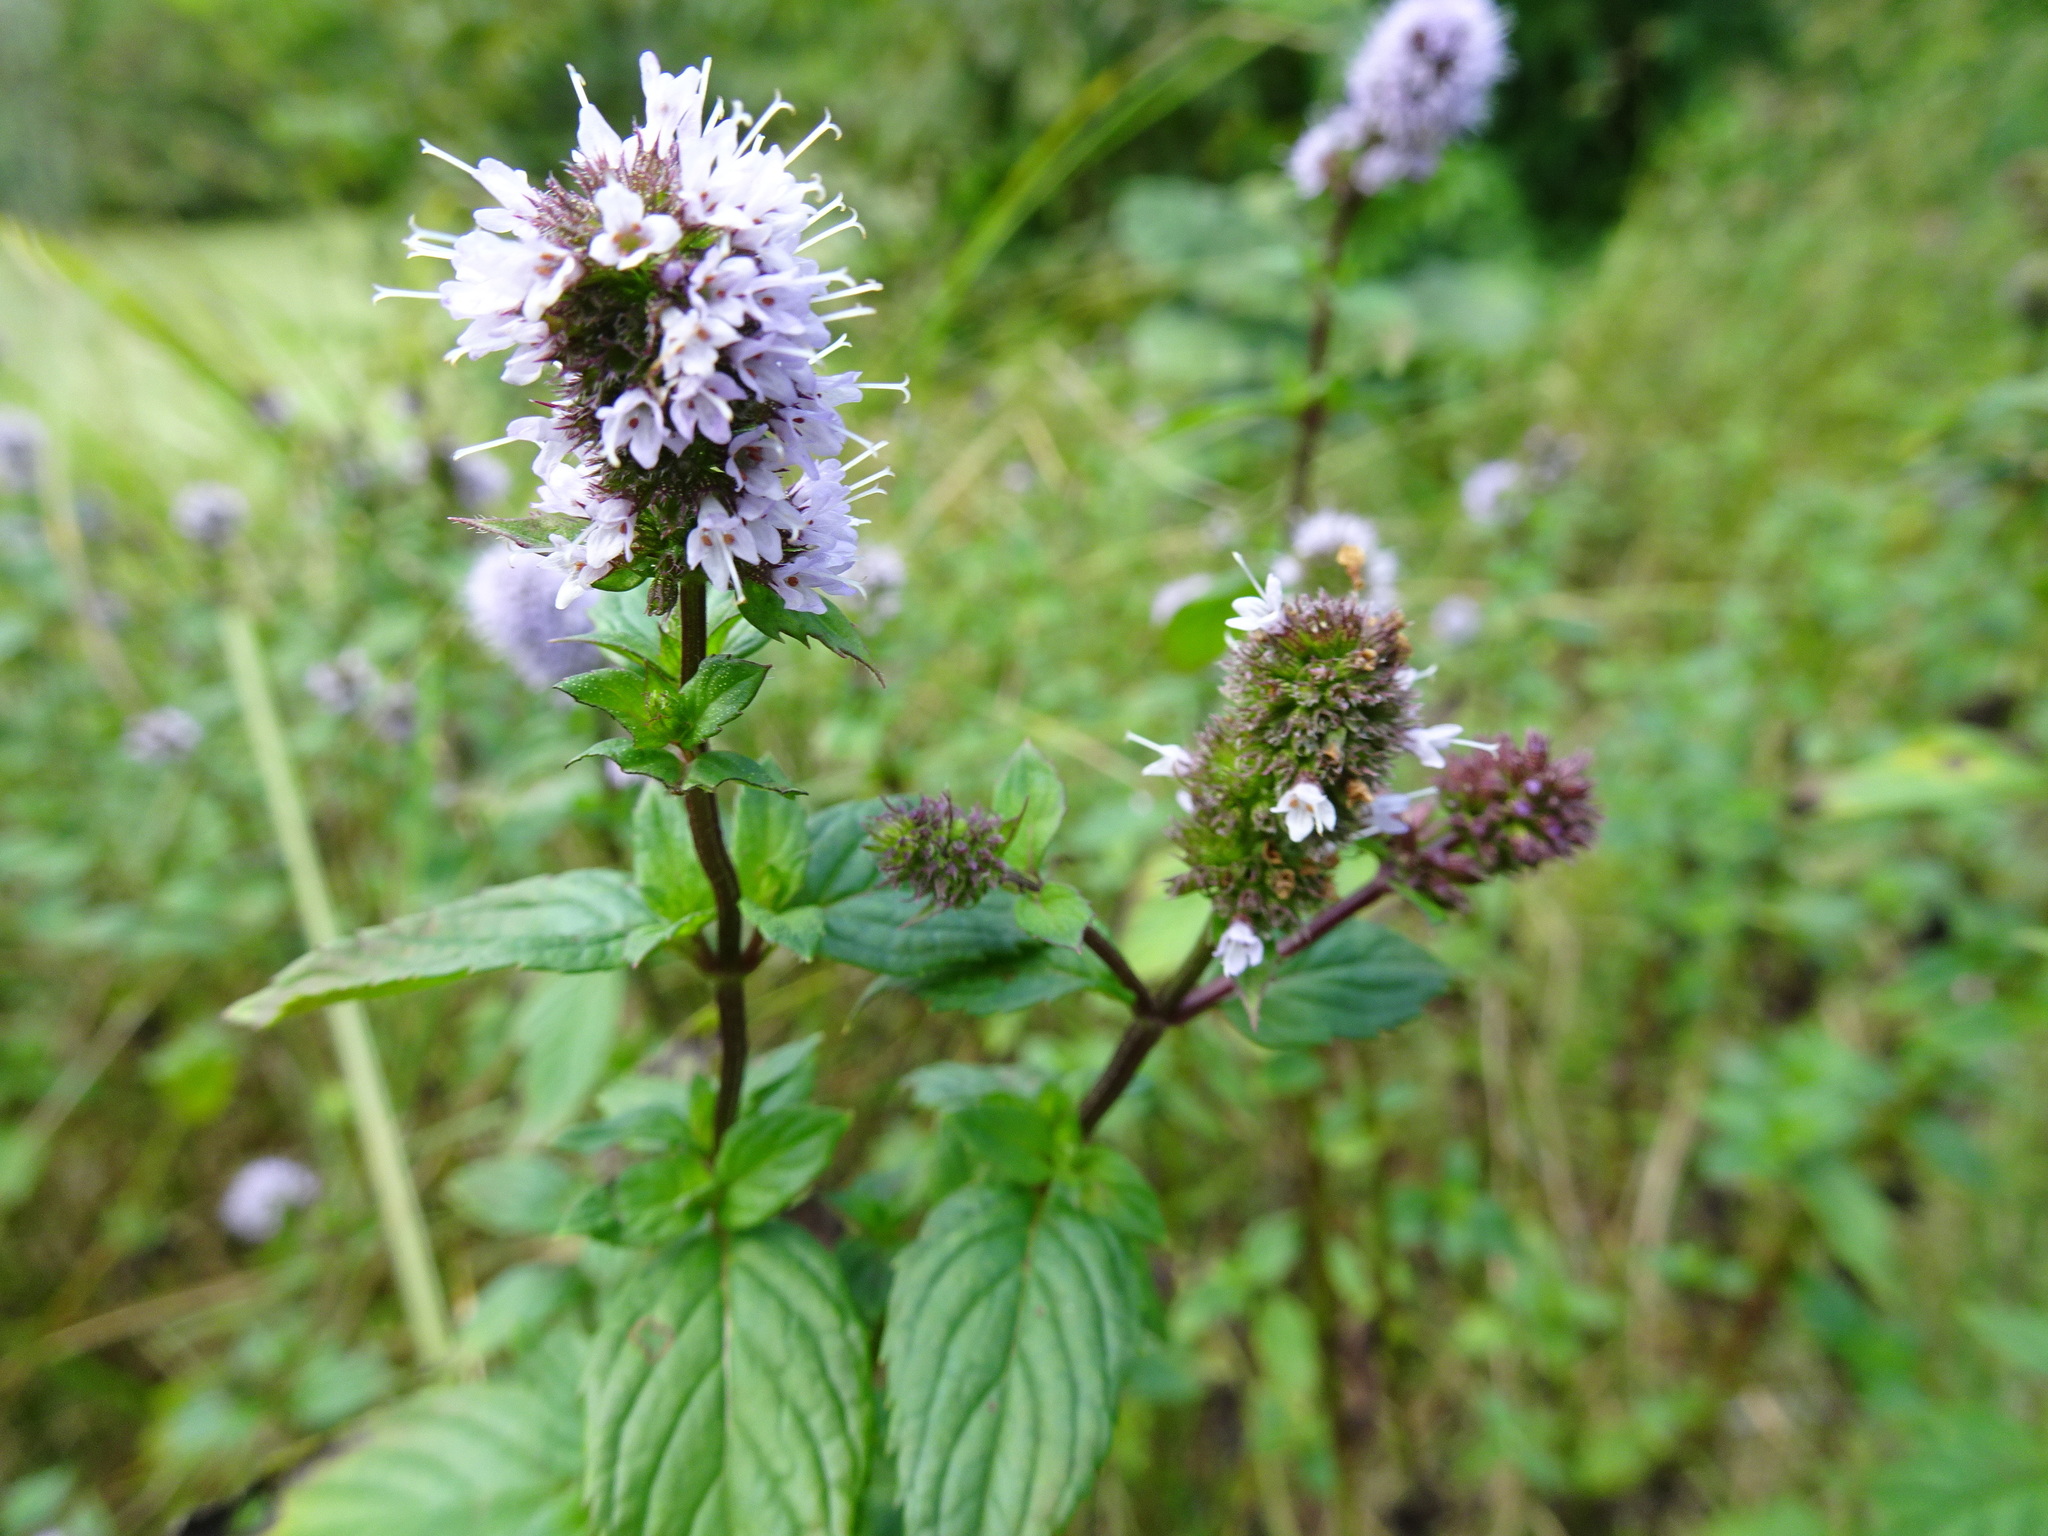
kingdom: Plantae
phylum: Tracheophyta
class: Magnoliopsida
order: Lamiales
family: Lamiaceae
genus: Mentha
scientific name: Mentha piperita
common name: Peppermint
